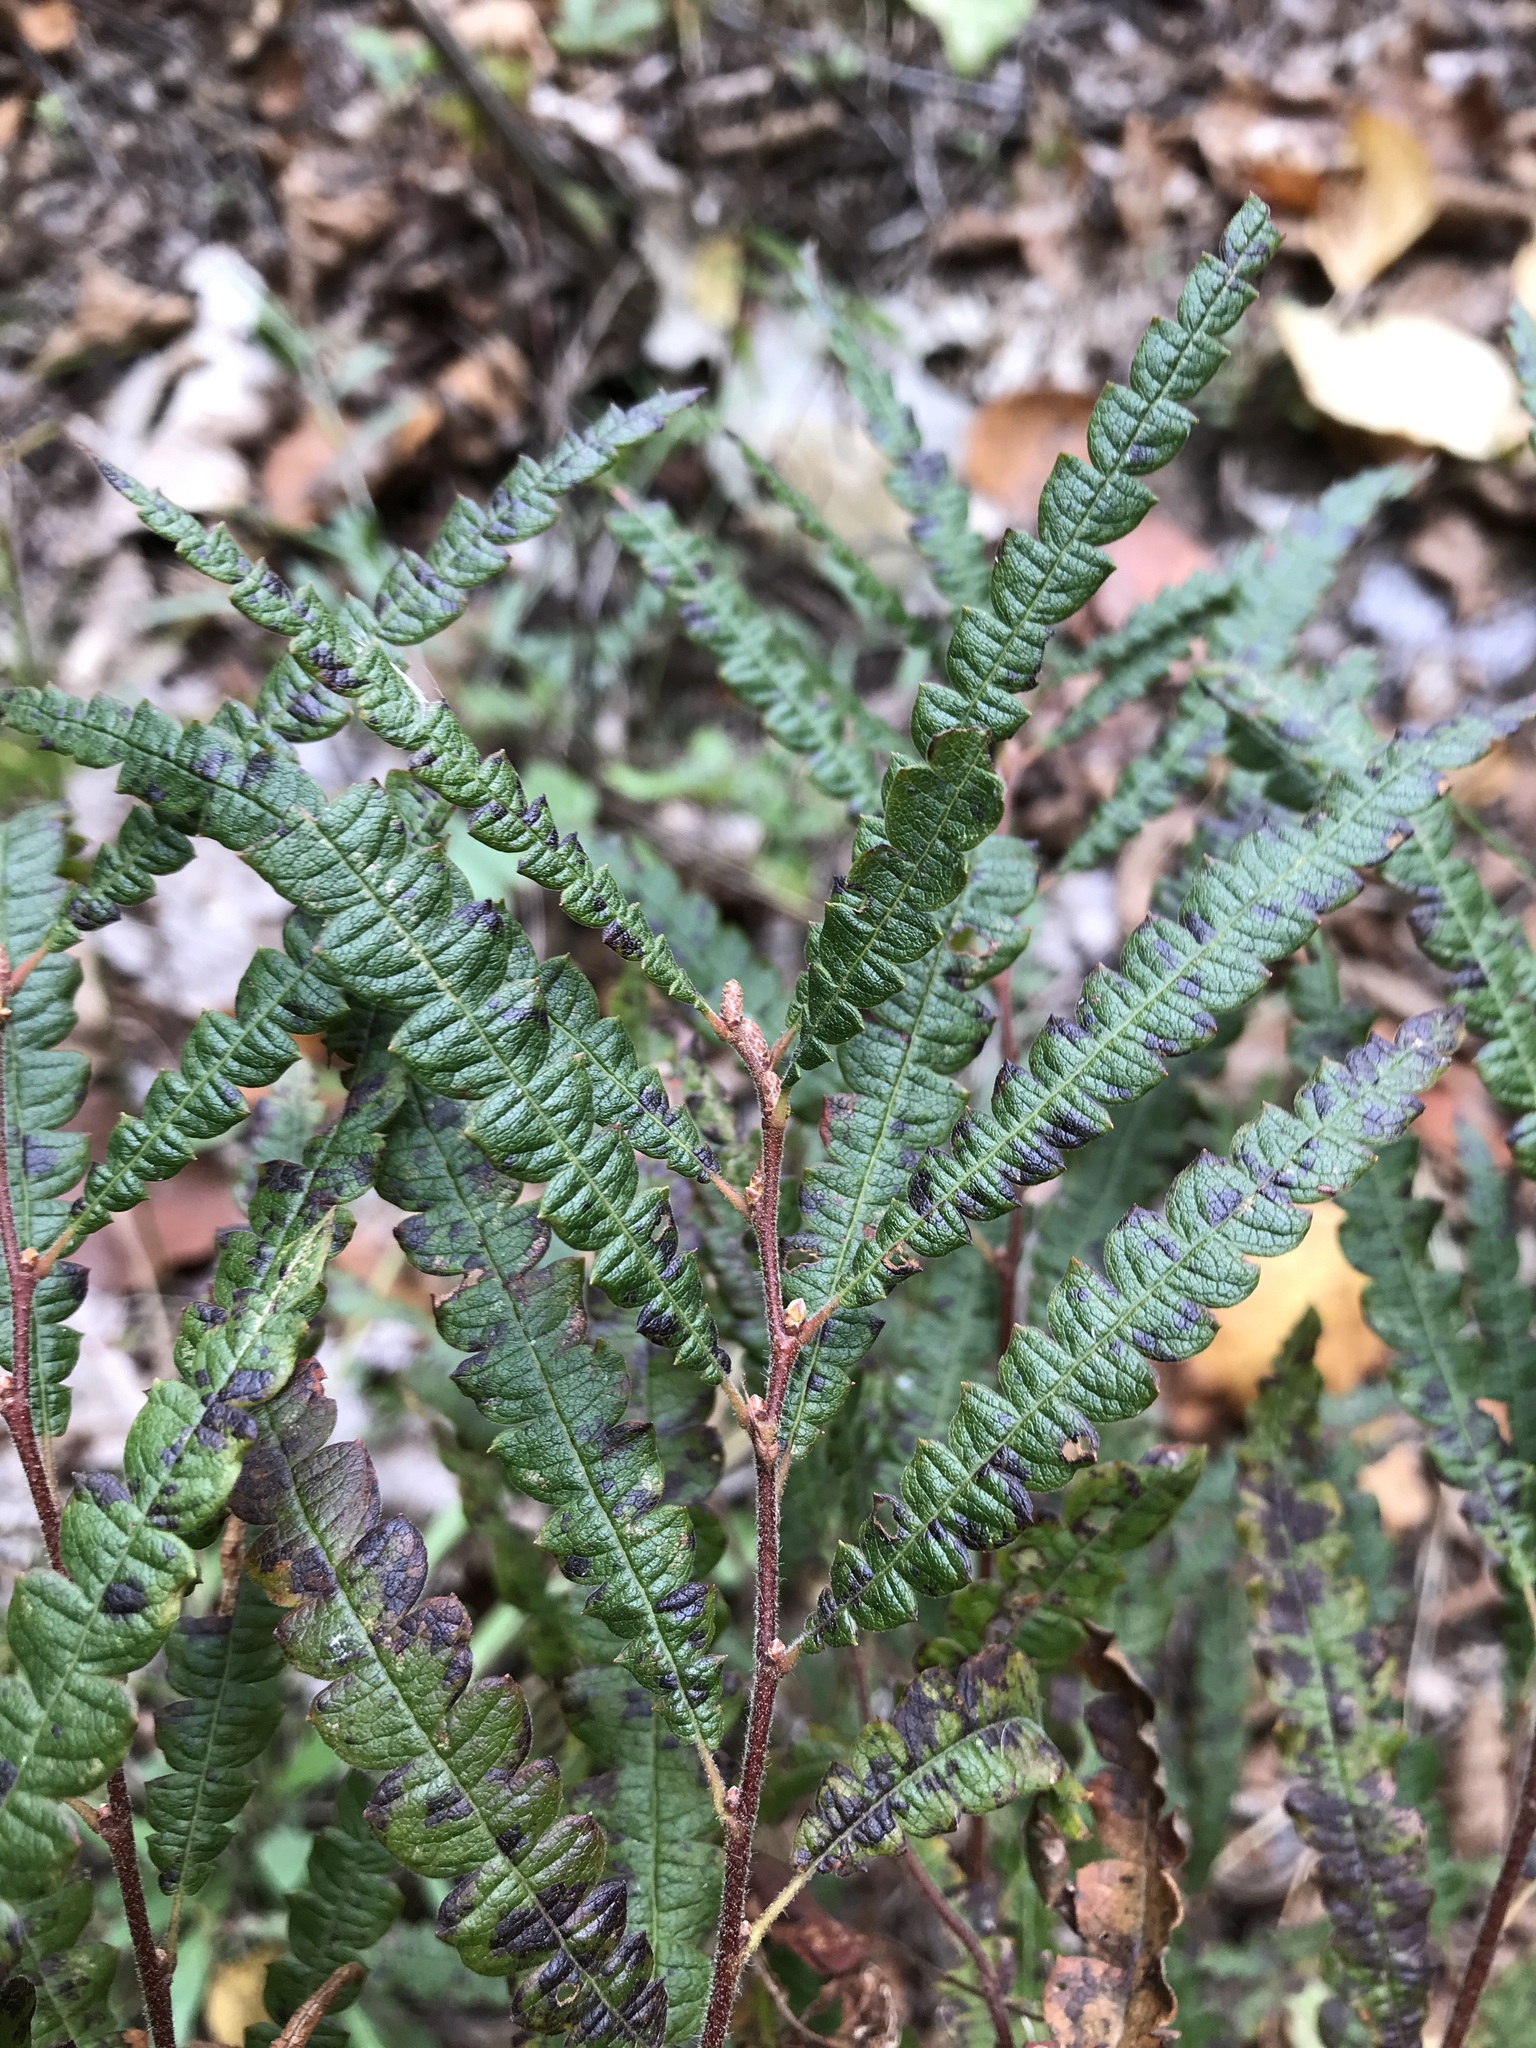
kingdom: Plantae
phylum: Tracheophyta
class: Magnoliopsida
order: Fagales
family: Myricaceae
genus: Comptonia
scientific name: Comptonia peregrina
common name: Sweet-fern
